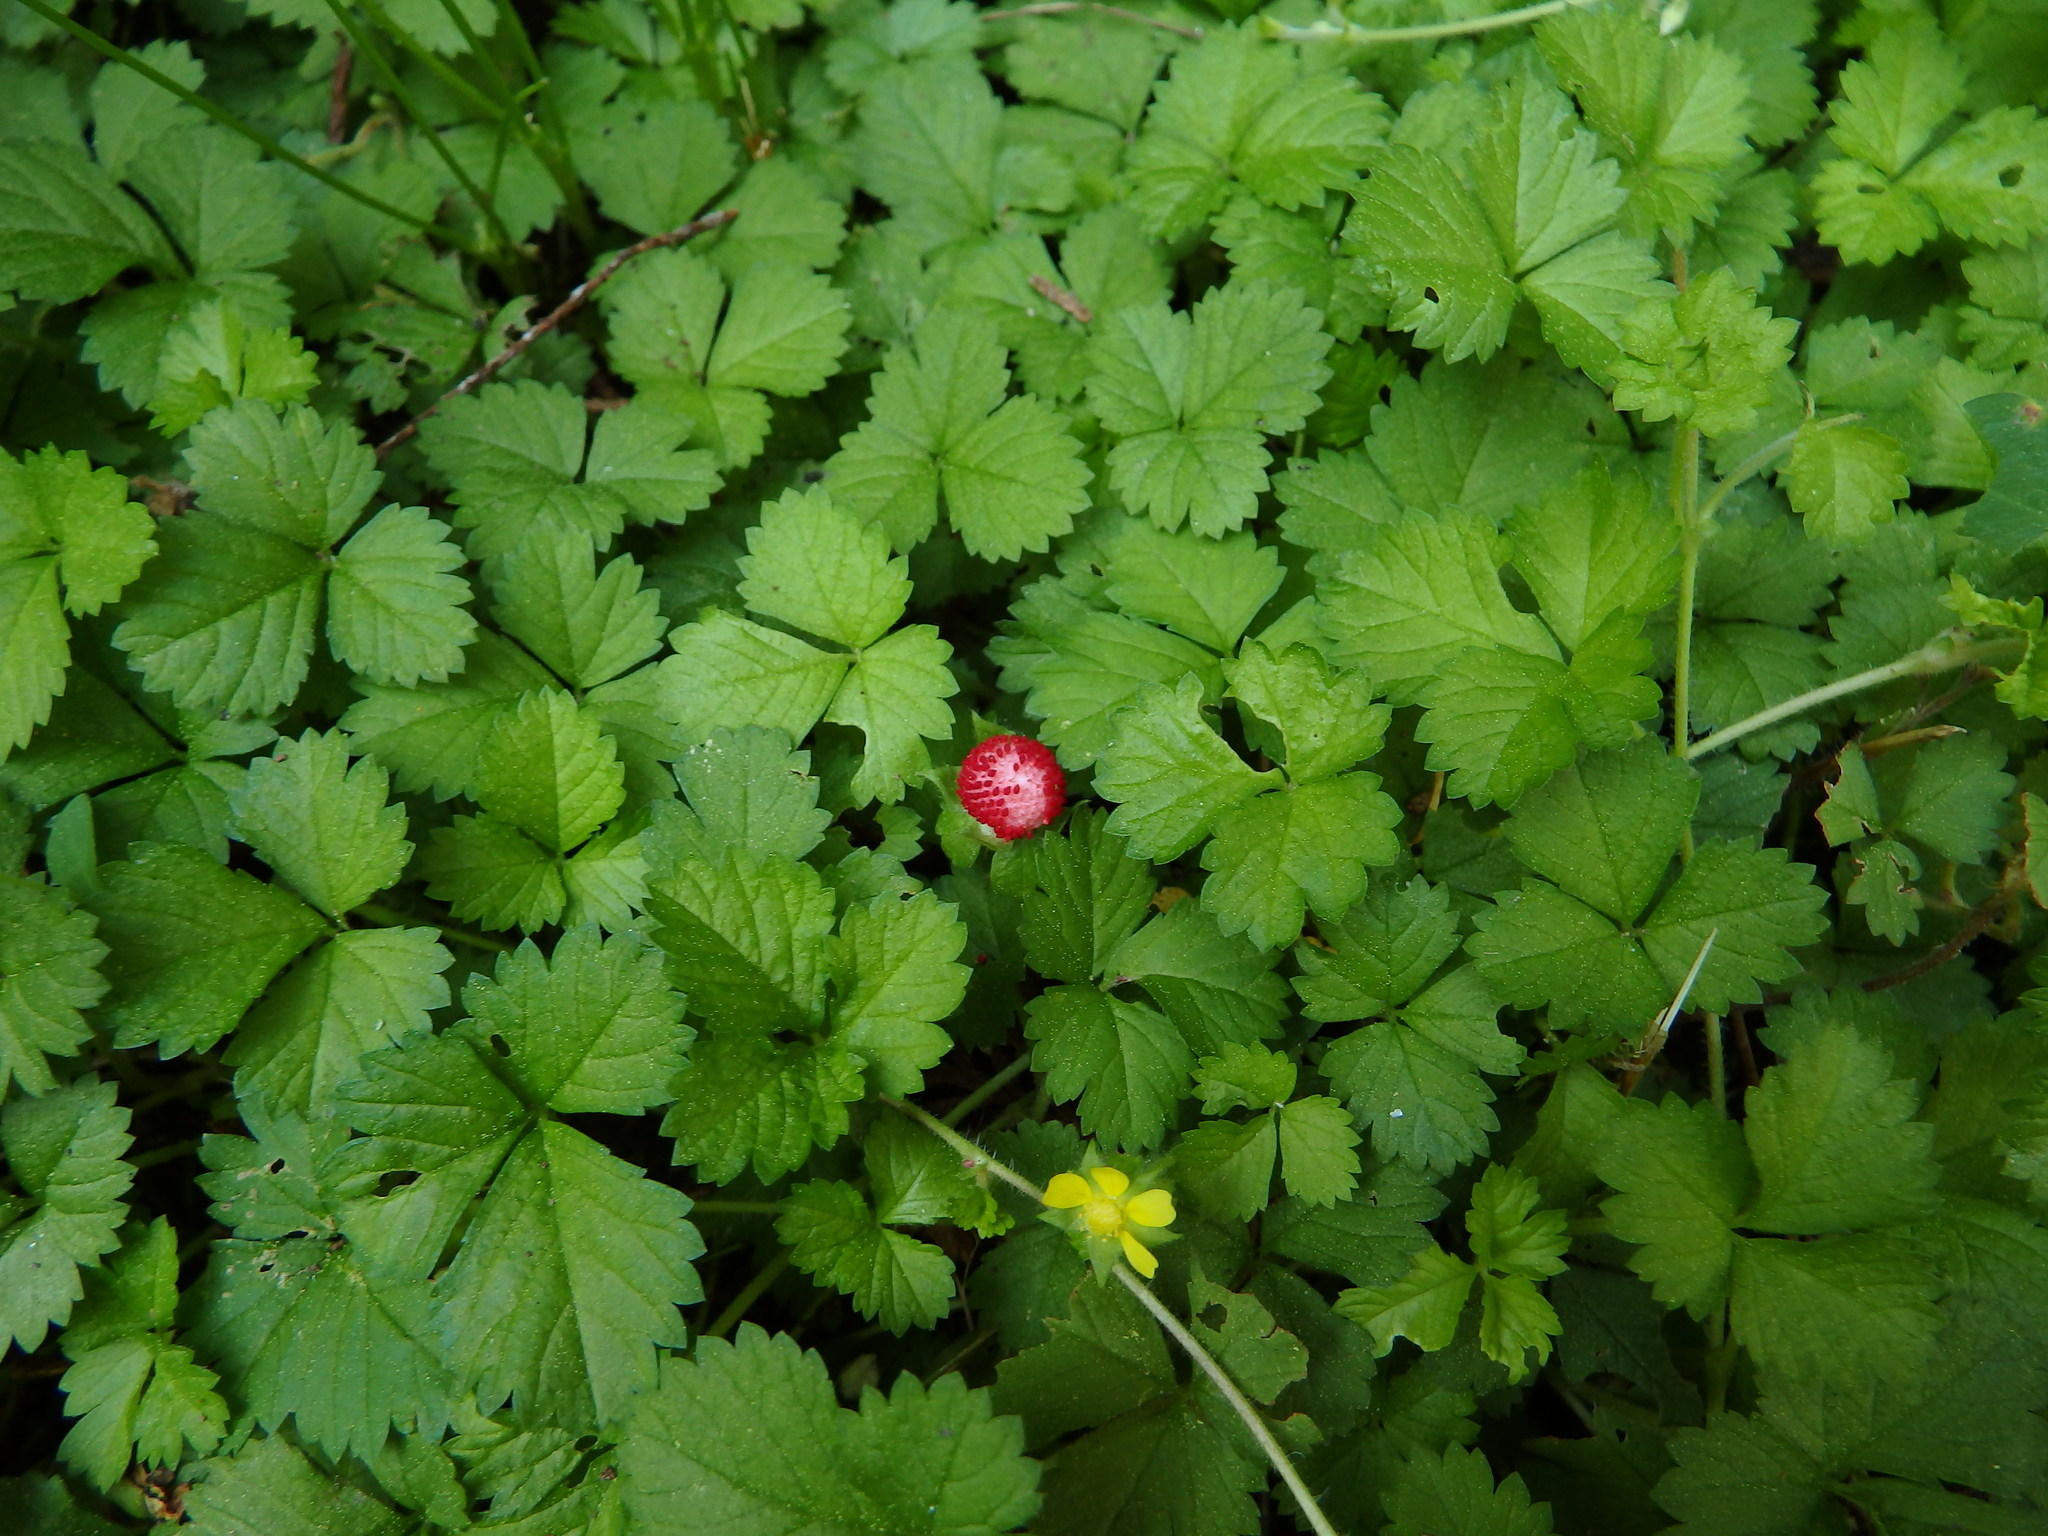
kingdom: Plantae
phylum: Tracheophyta
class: Magnoliopsida
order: Rosales
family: Rosaceae
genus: Potentilla
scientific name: Potentilla indica
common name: Yellow-flowered strawberry
